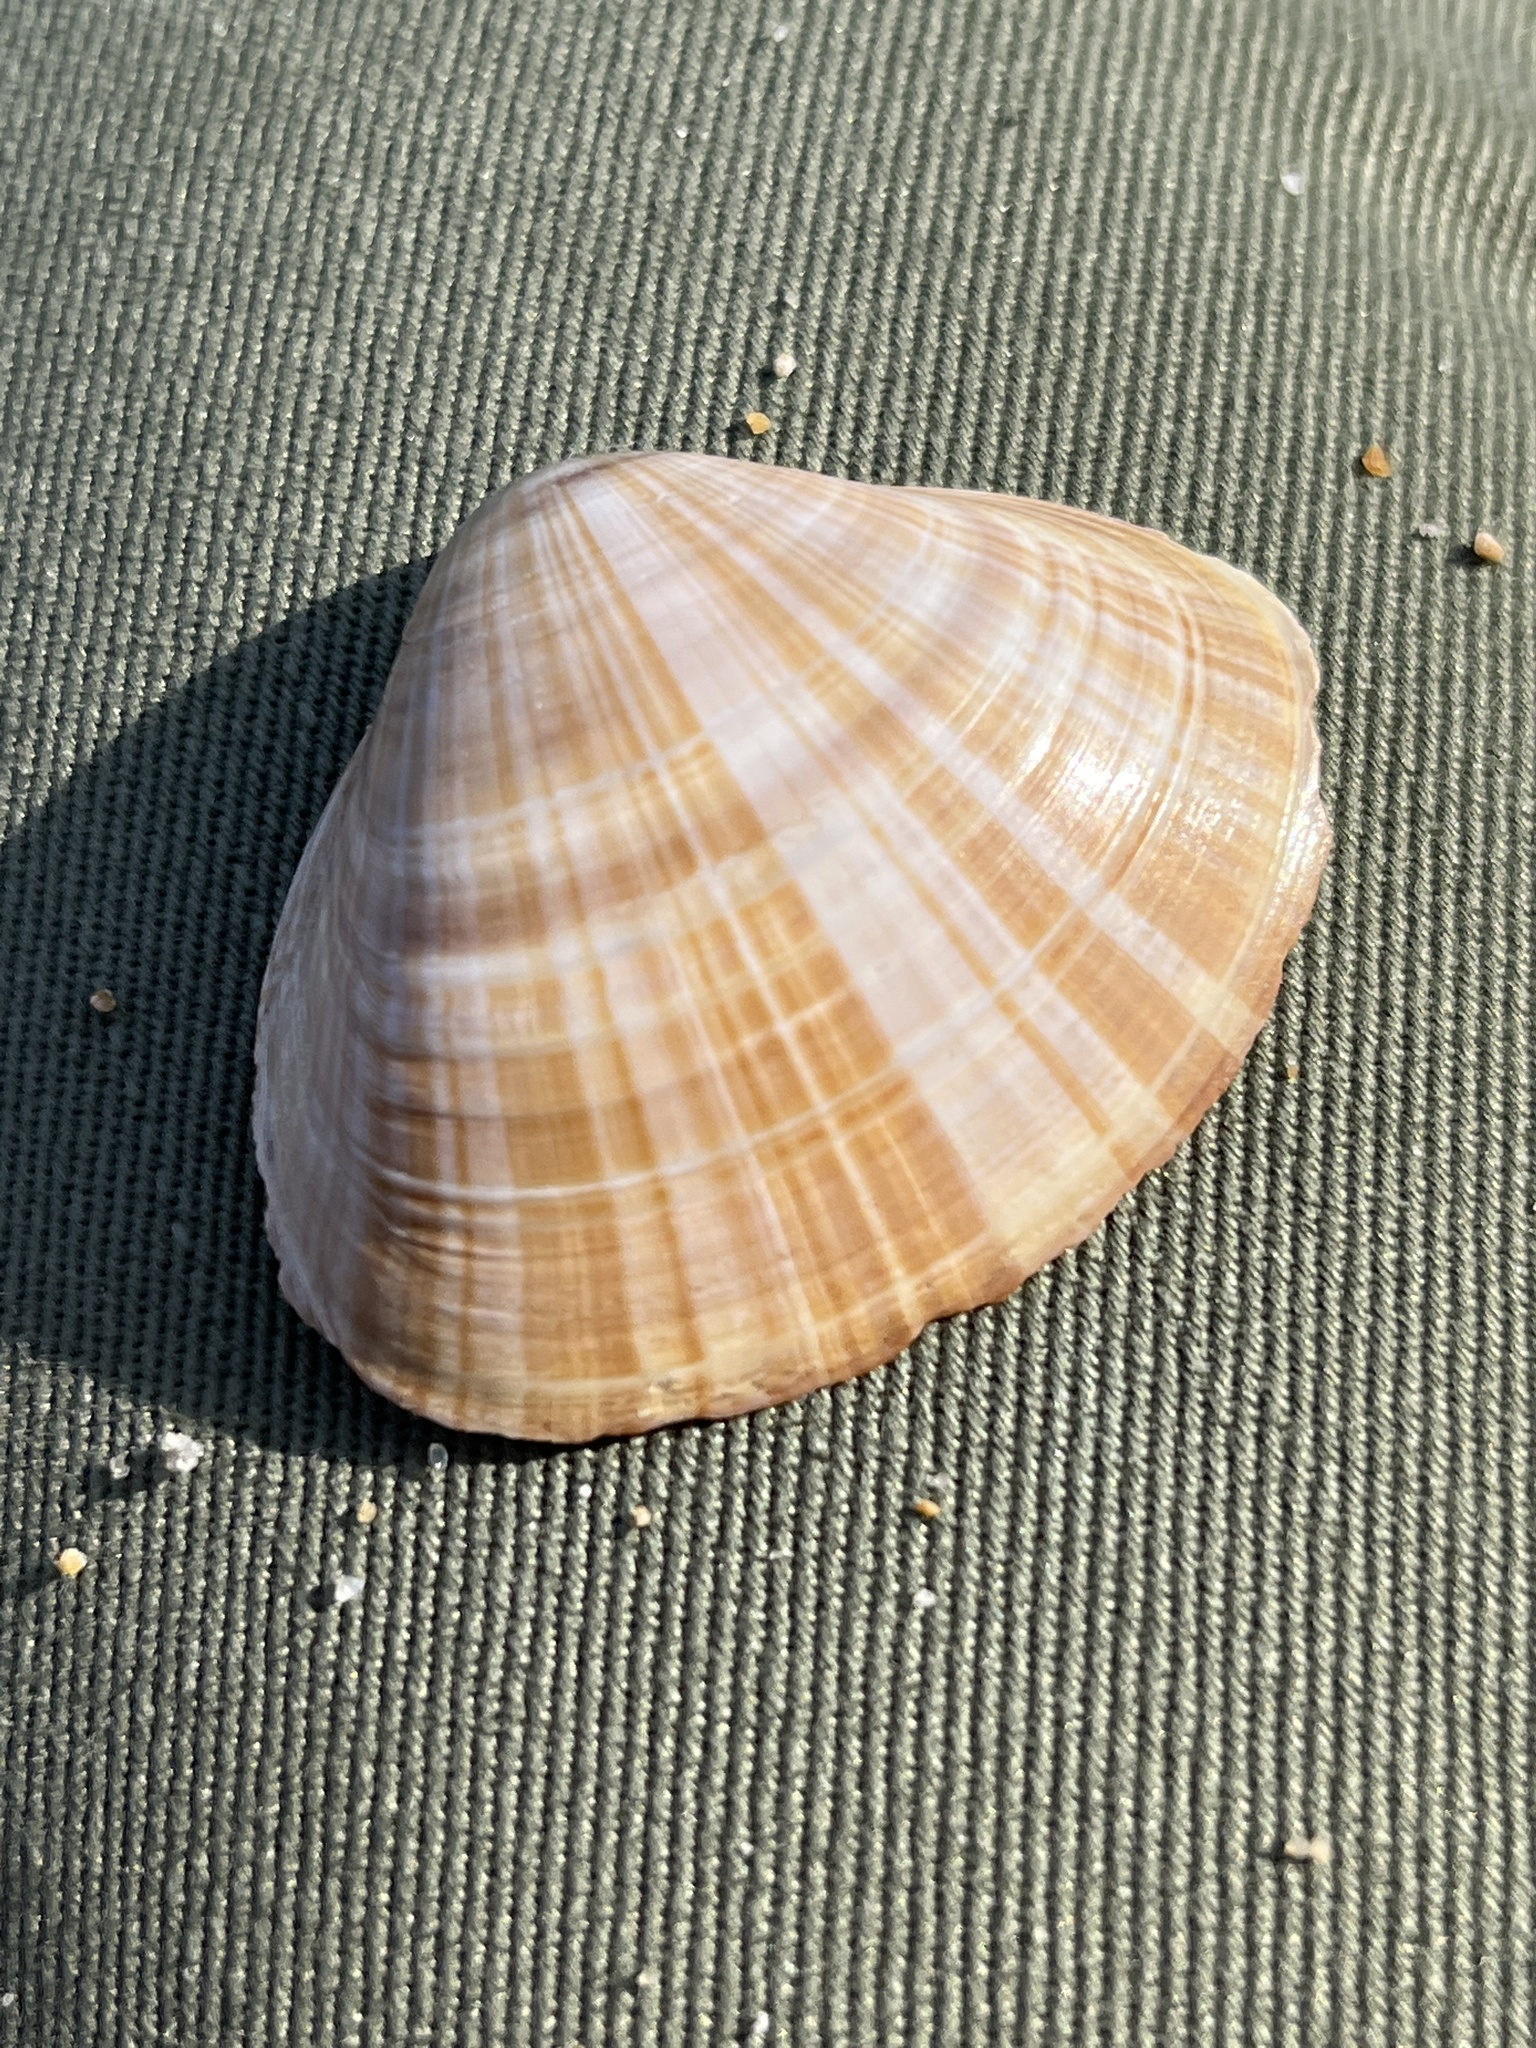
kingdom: Animalia
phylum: Mollusca
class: Bivalvia
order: Venerida
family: Mactridae
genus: Mactra
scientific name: Mactra chinensis
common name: Chinese surf clam
